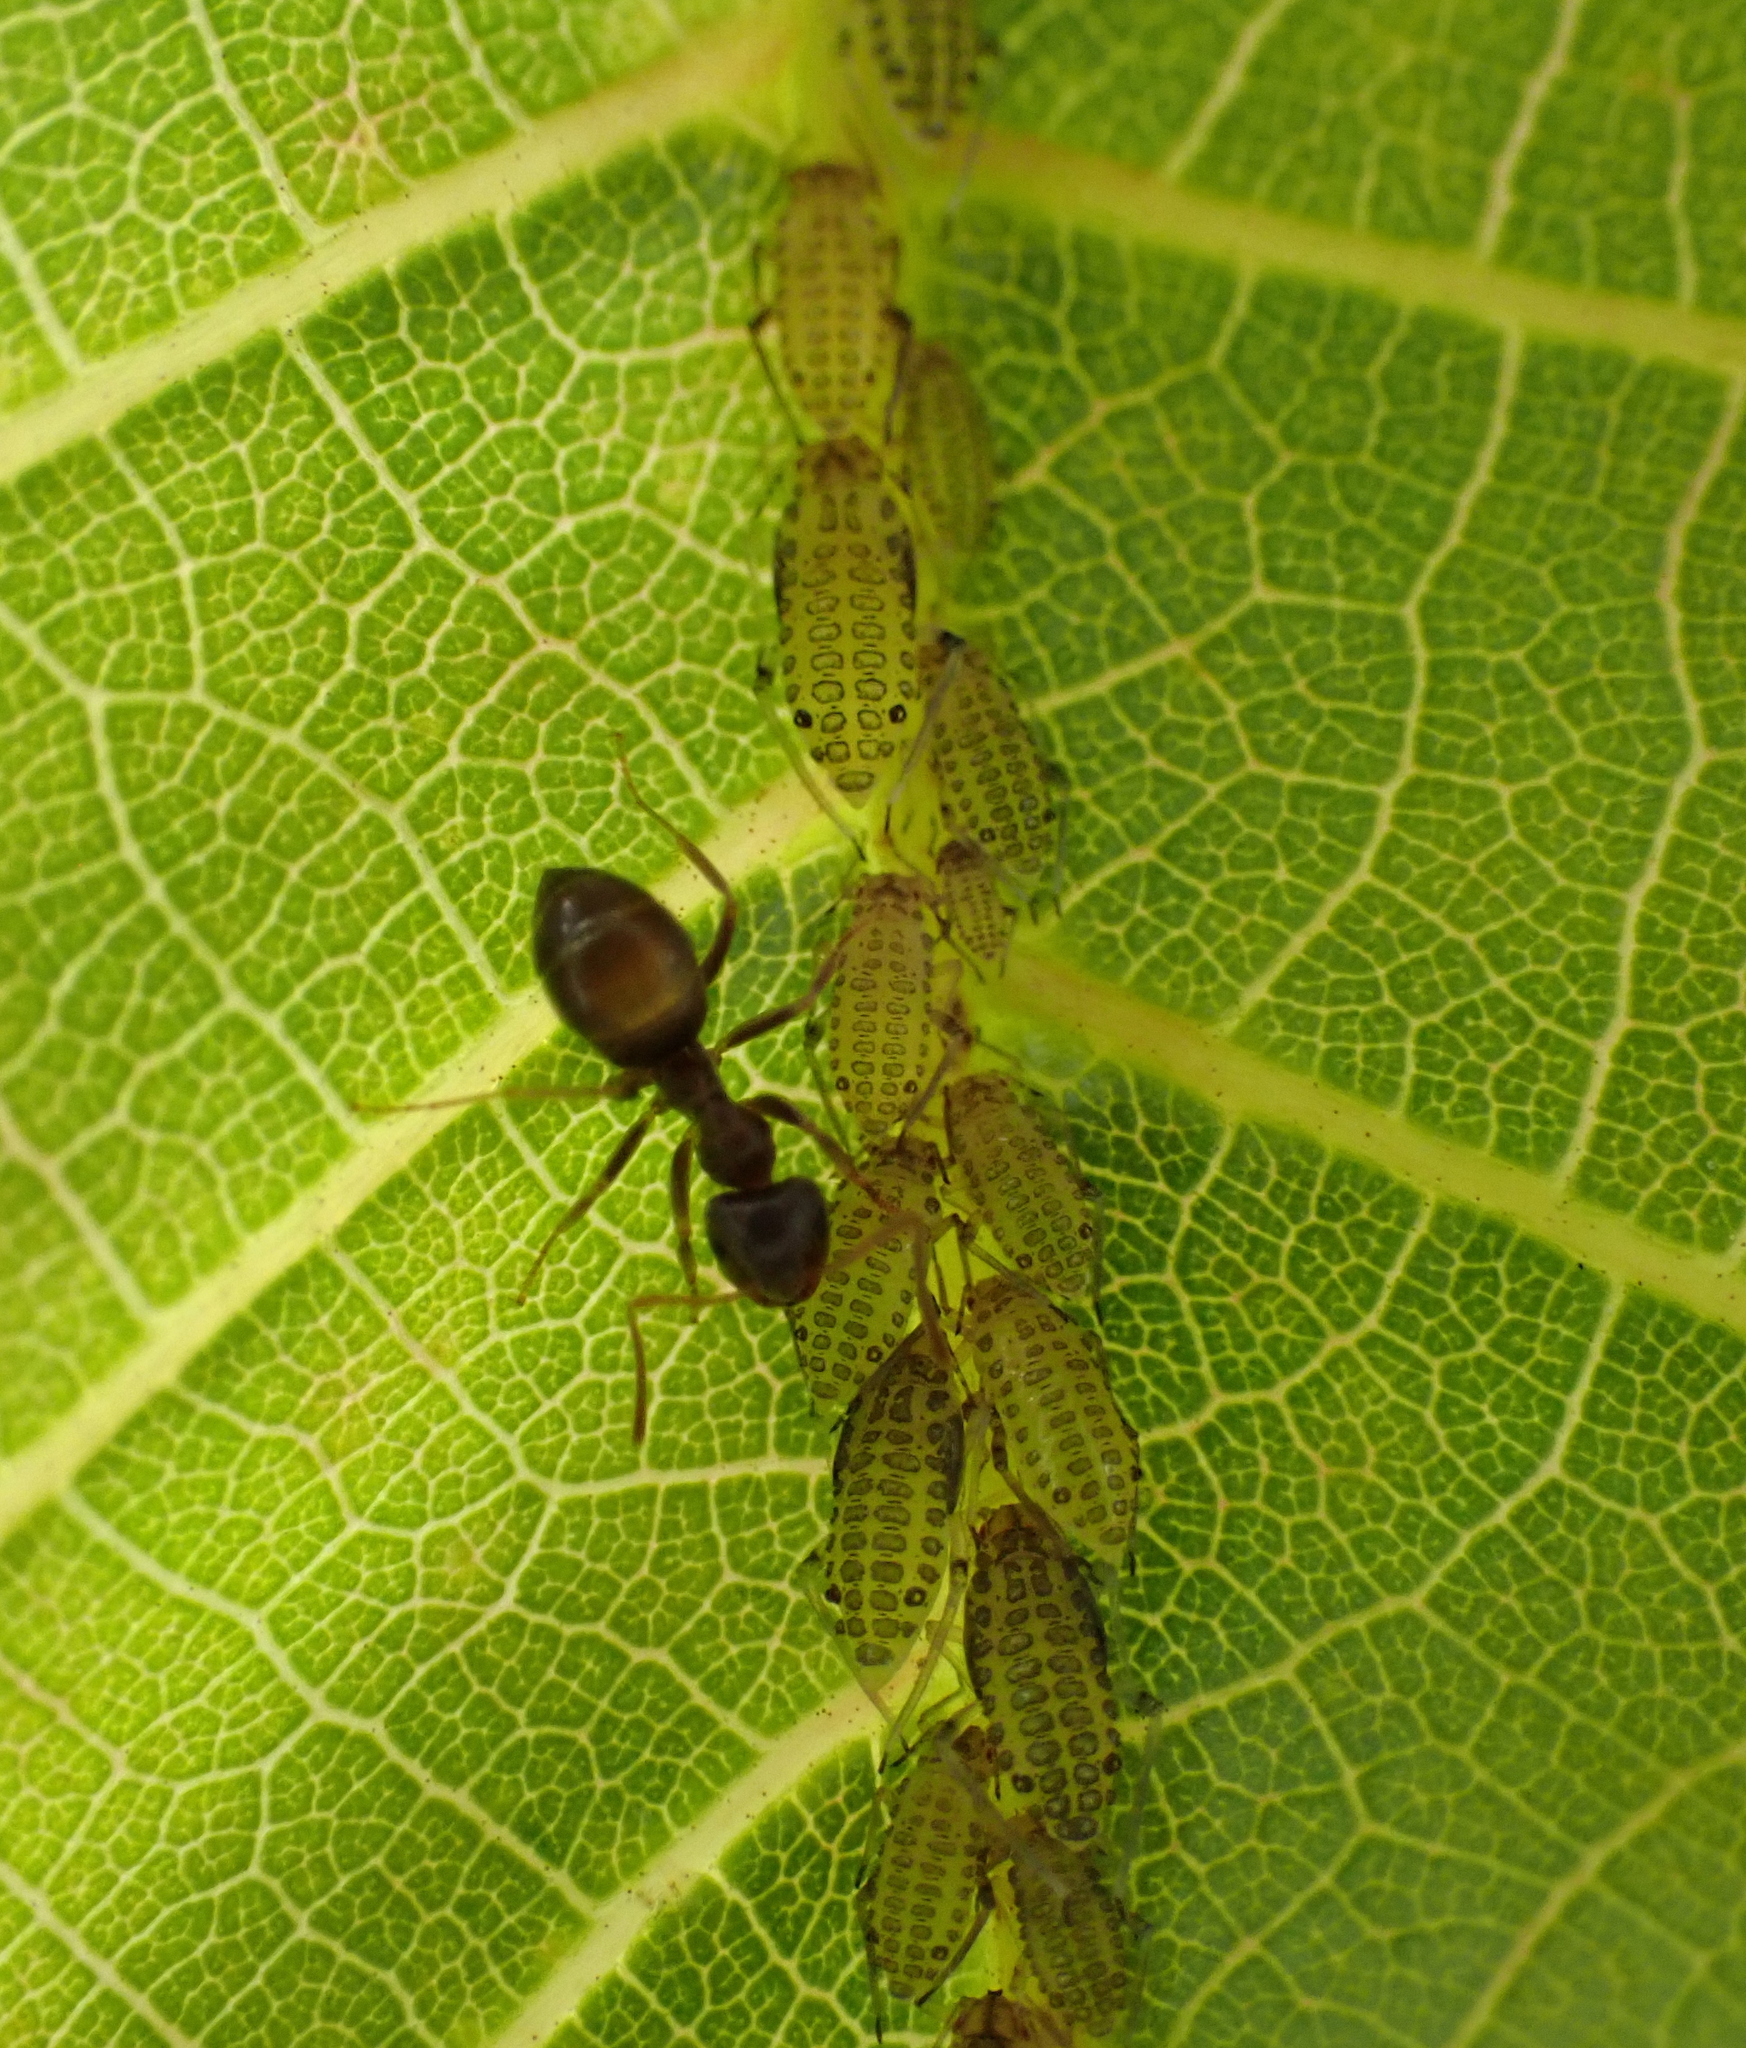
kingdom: Animalia
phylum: Arthropoda
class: Insecta
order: Hemiptera
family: Aphididae
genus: Panaphis
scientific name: Panaphis juglandis
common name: Large walnut aphid
